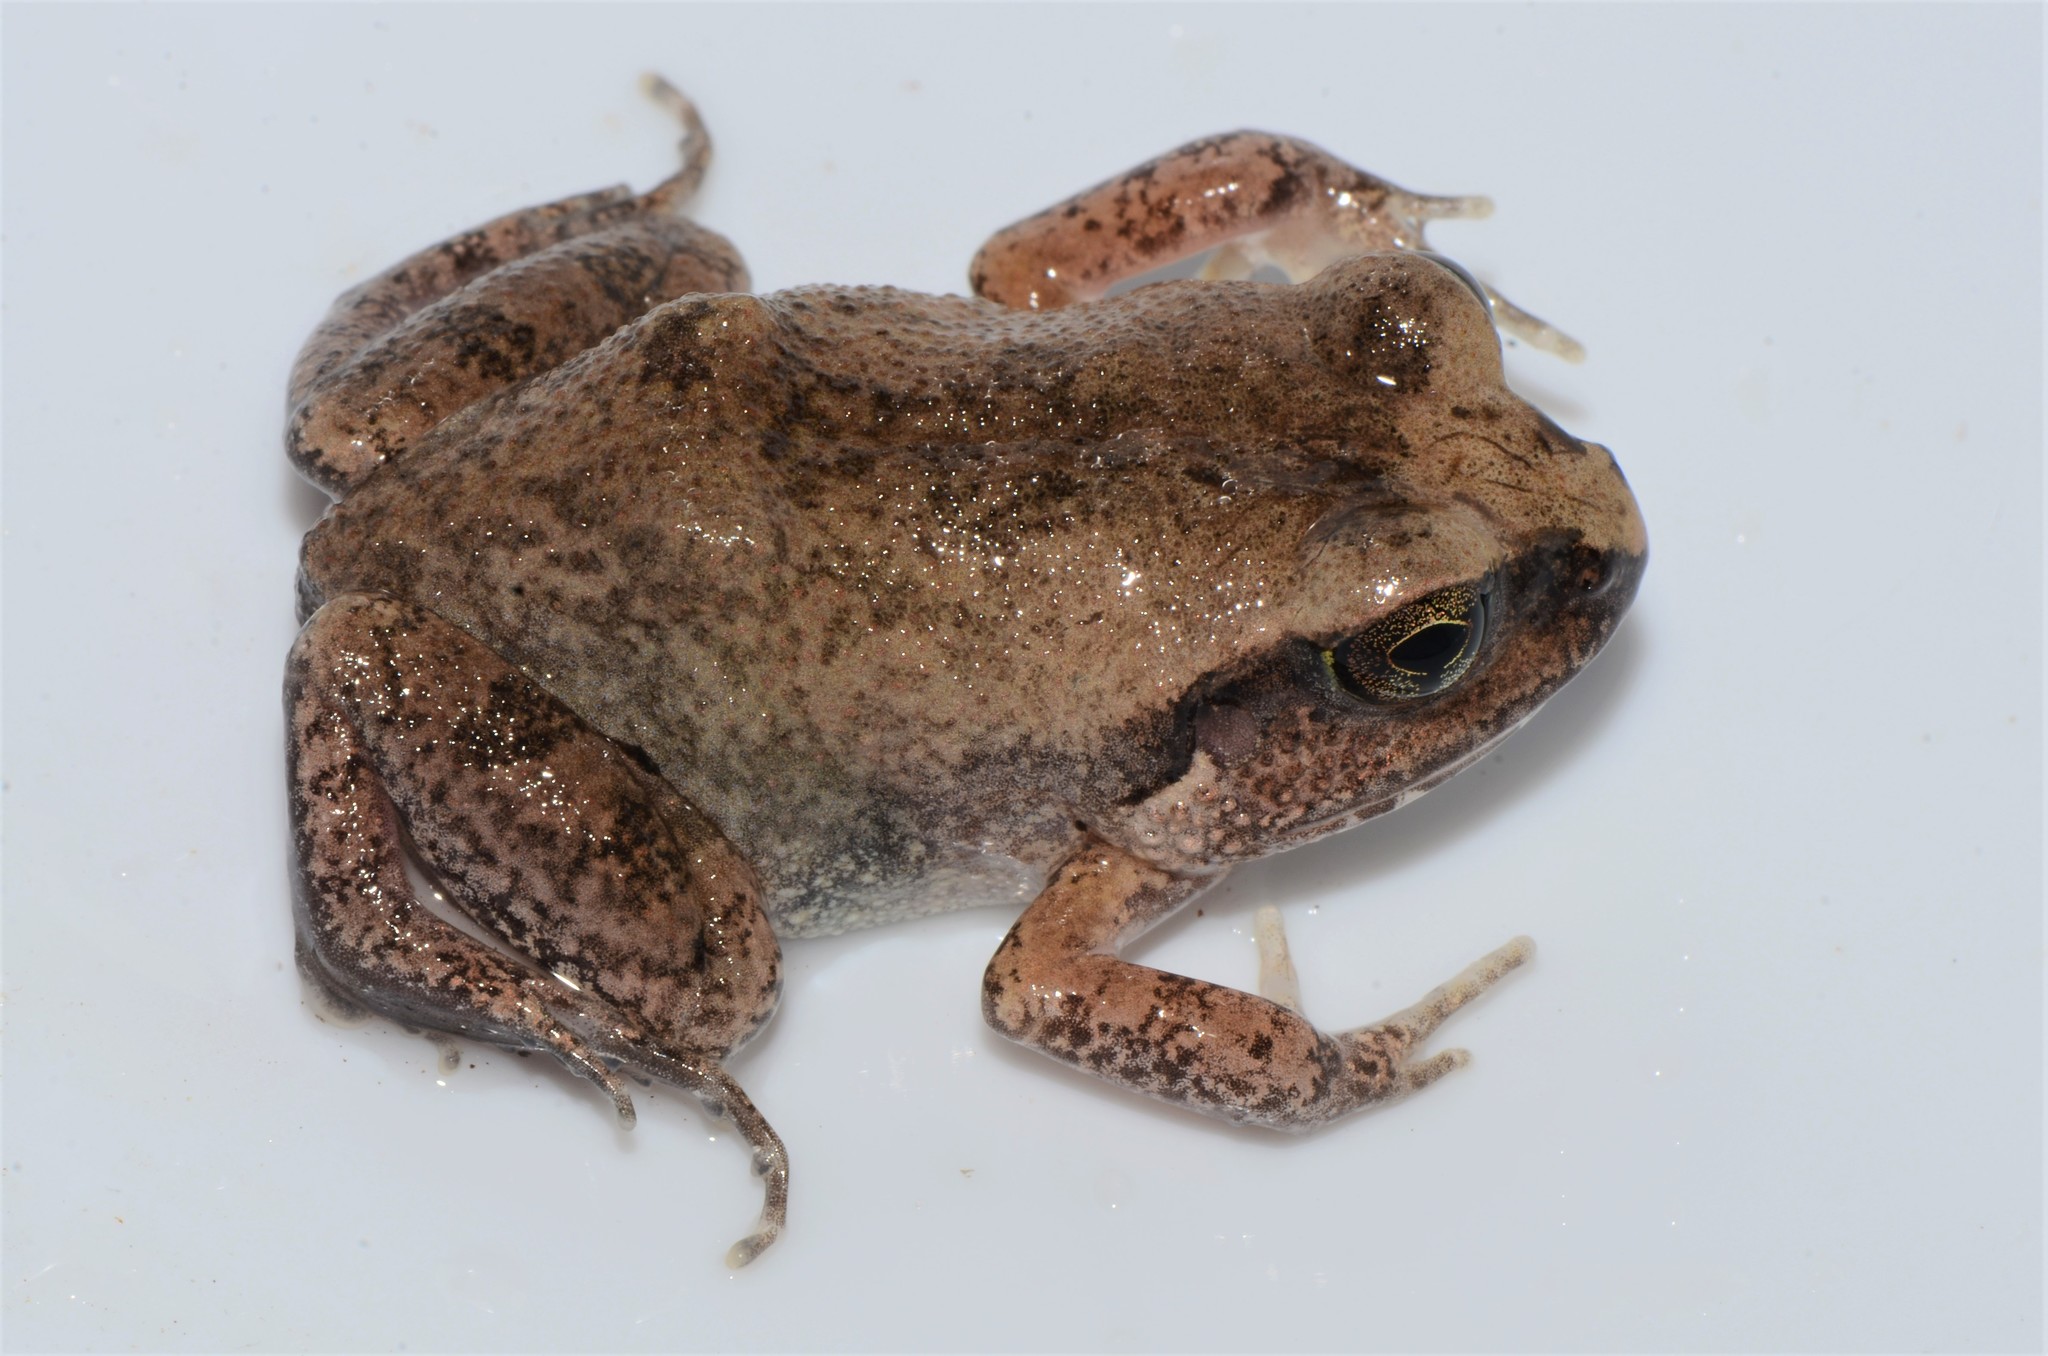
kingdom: Animalia
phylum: Chordata
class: Amphibia
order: Anura
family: Arthroleptidae
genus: Arthroleptis
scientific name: Arthroleptis stenodactylus
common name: Dune squeaker
